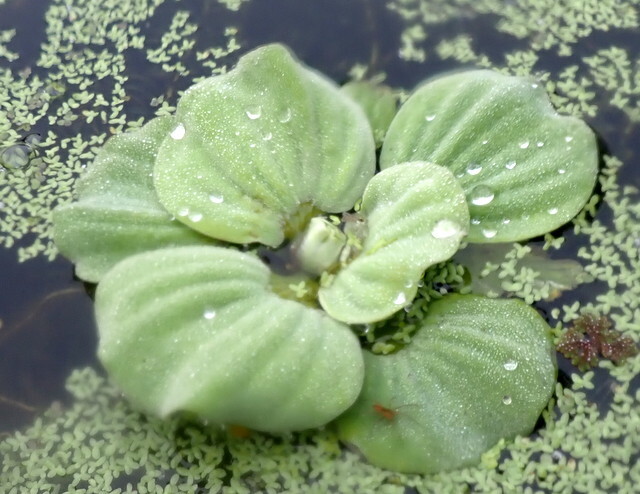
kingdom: Plantae
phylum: Tracheophyta
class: Liliopsida
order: Alismatales
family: Araceae
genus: Pistia
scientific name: Pistia stratiotes
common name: Water lettuce
